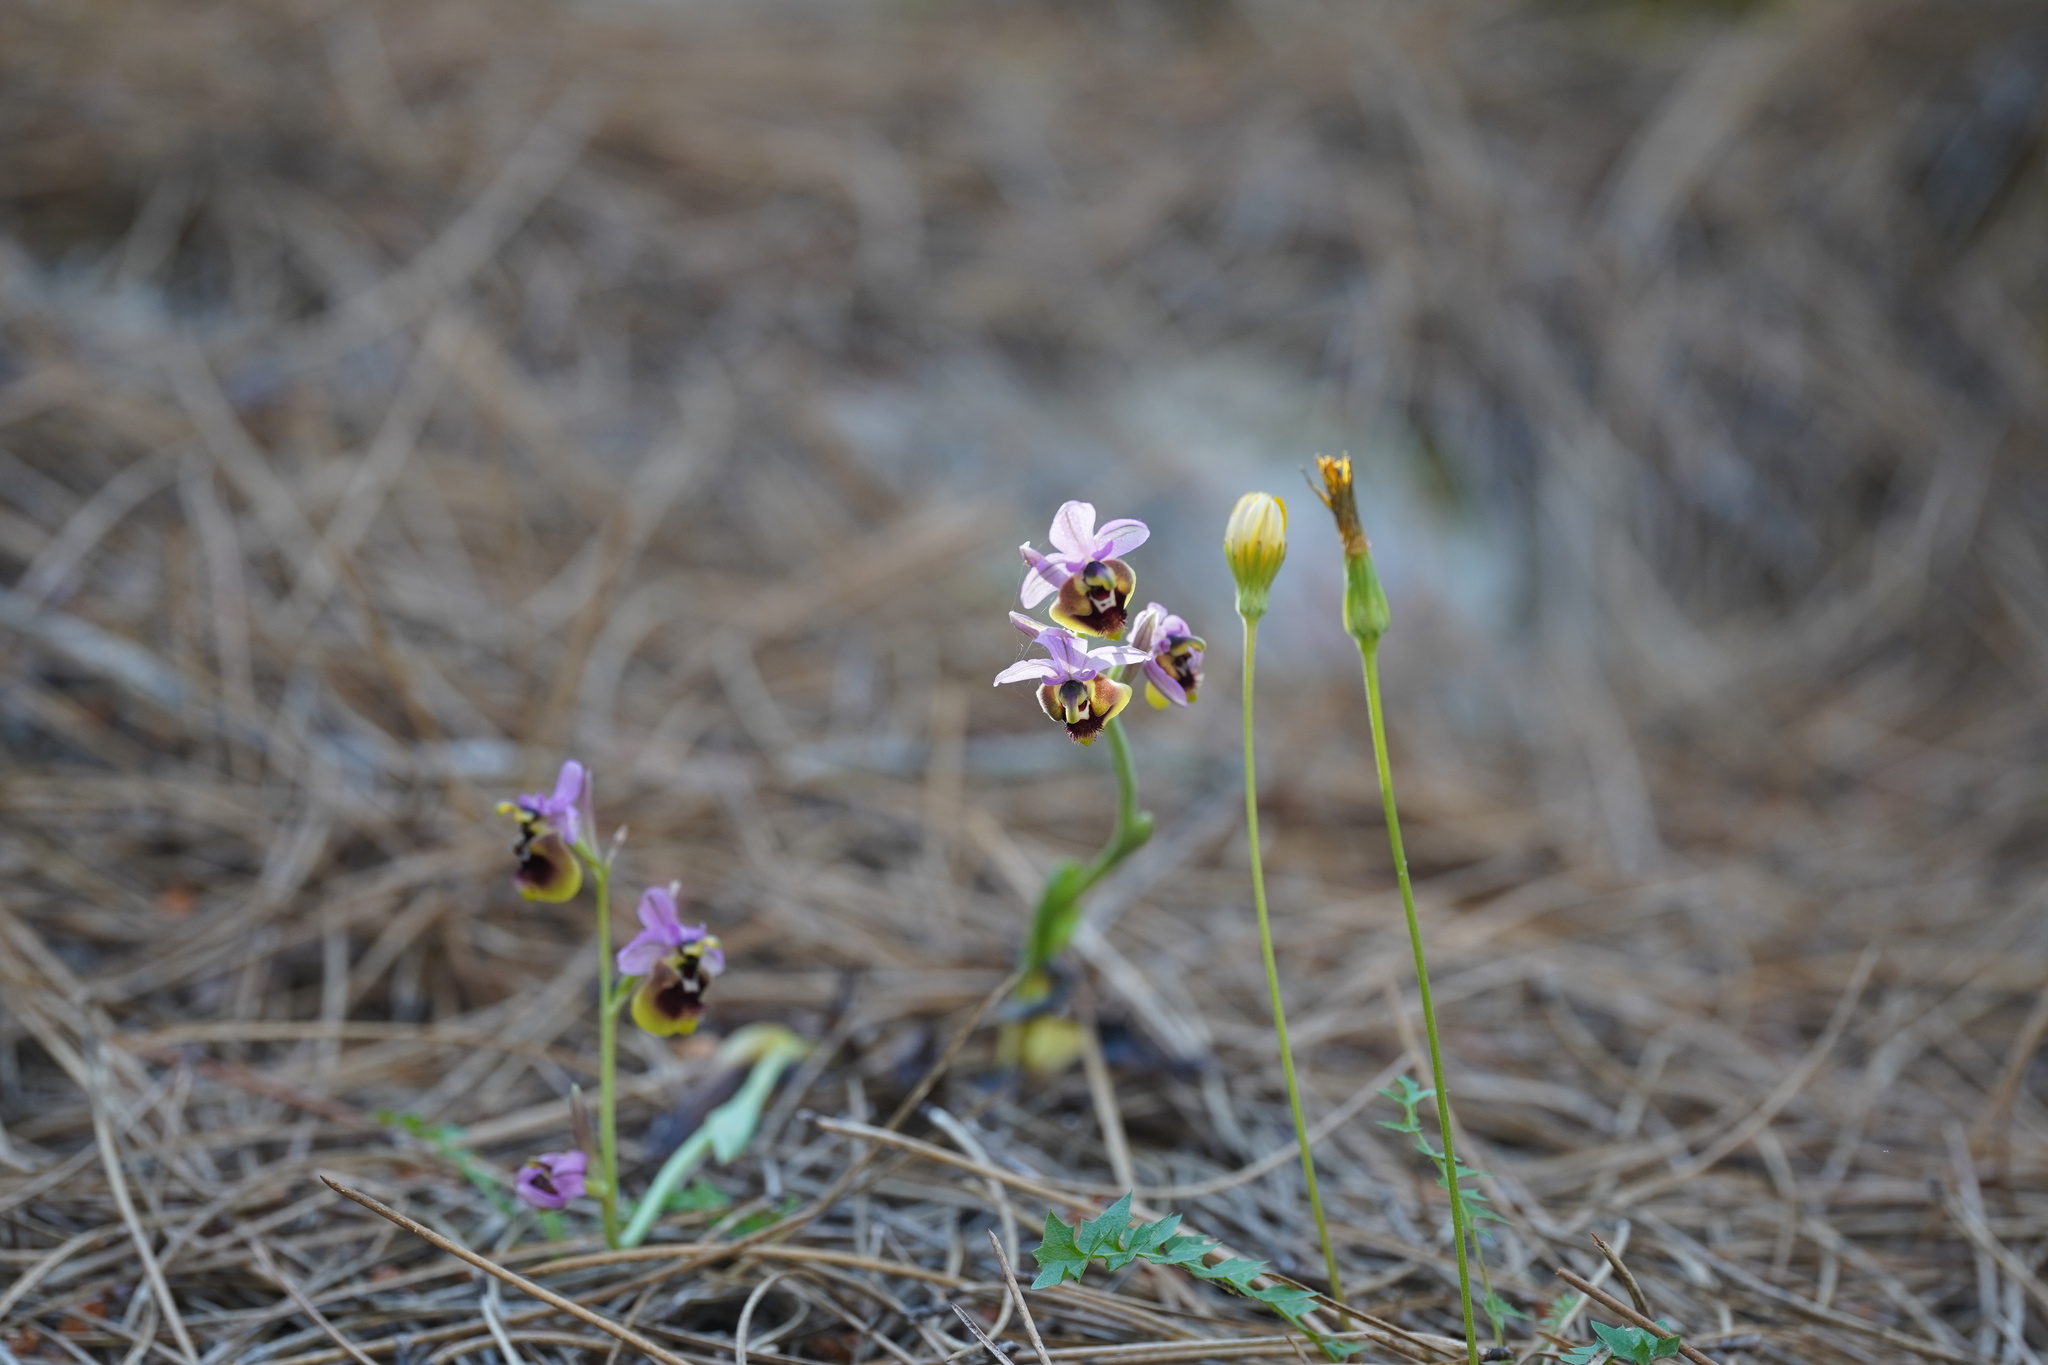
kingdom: Plantae
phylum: Tracheophyta
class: Liliopsida
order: Asparagales
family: Orchidaceae
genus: Ophrys
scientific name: Ophrys tenthredinifera
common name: Sawfly orchid
